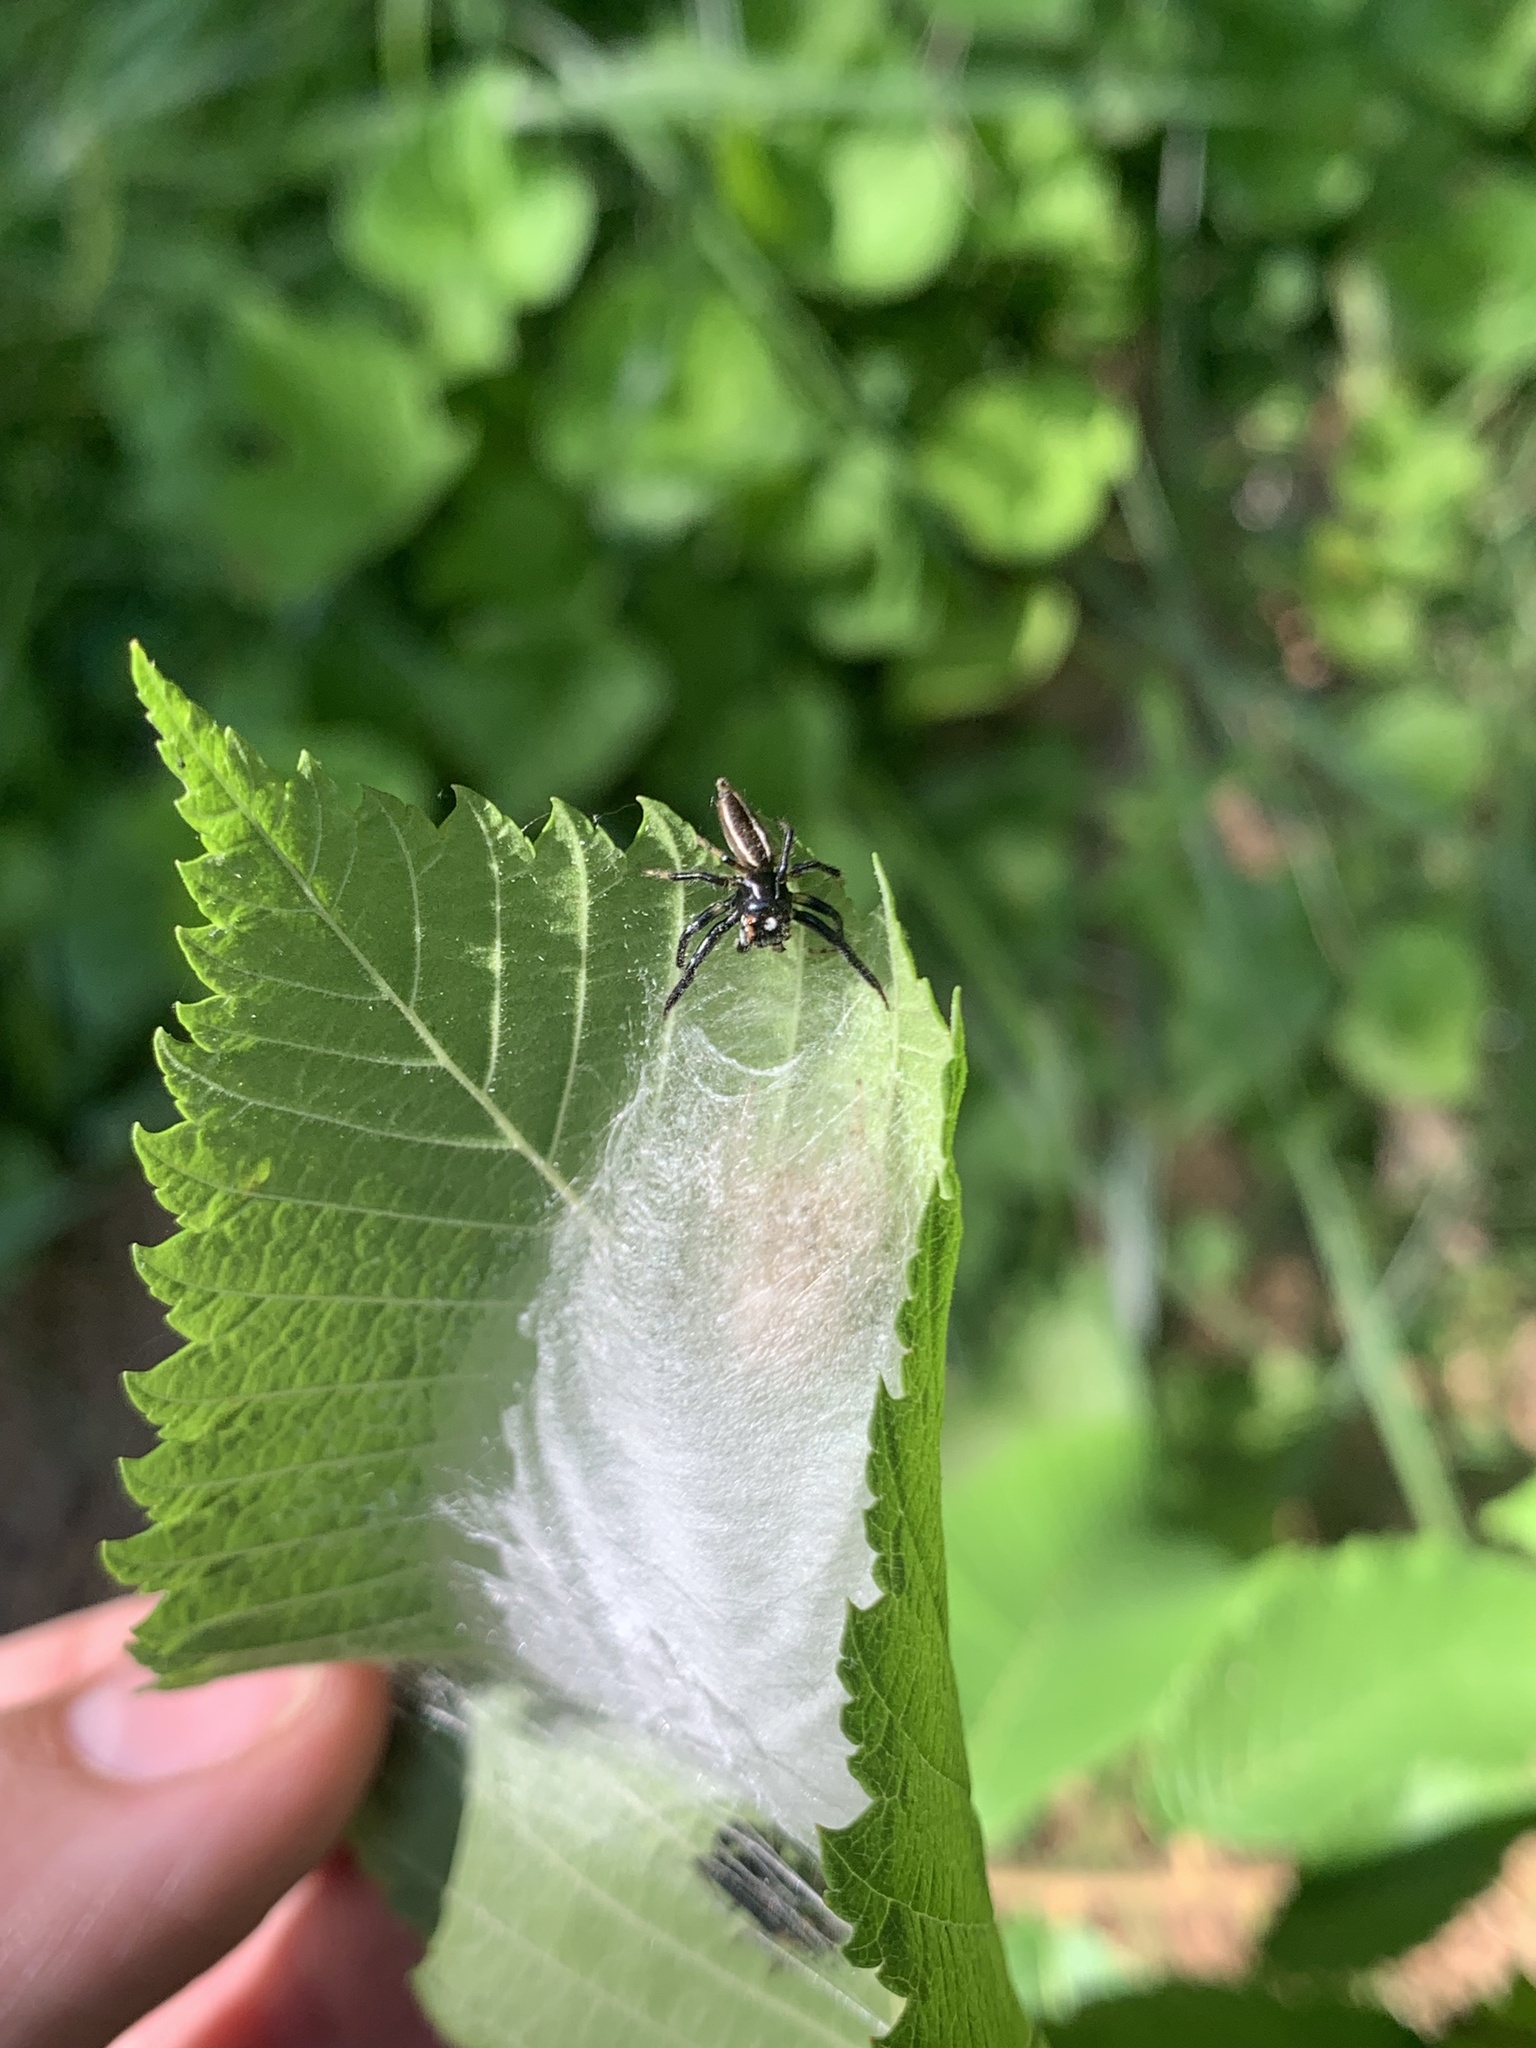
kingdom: Animalia
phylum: Arthropoda
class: Arachnida
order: Araneae
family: Salticidae
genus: Colonus
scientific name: Colonus sylvanus
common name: Jumping spiders
